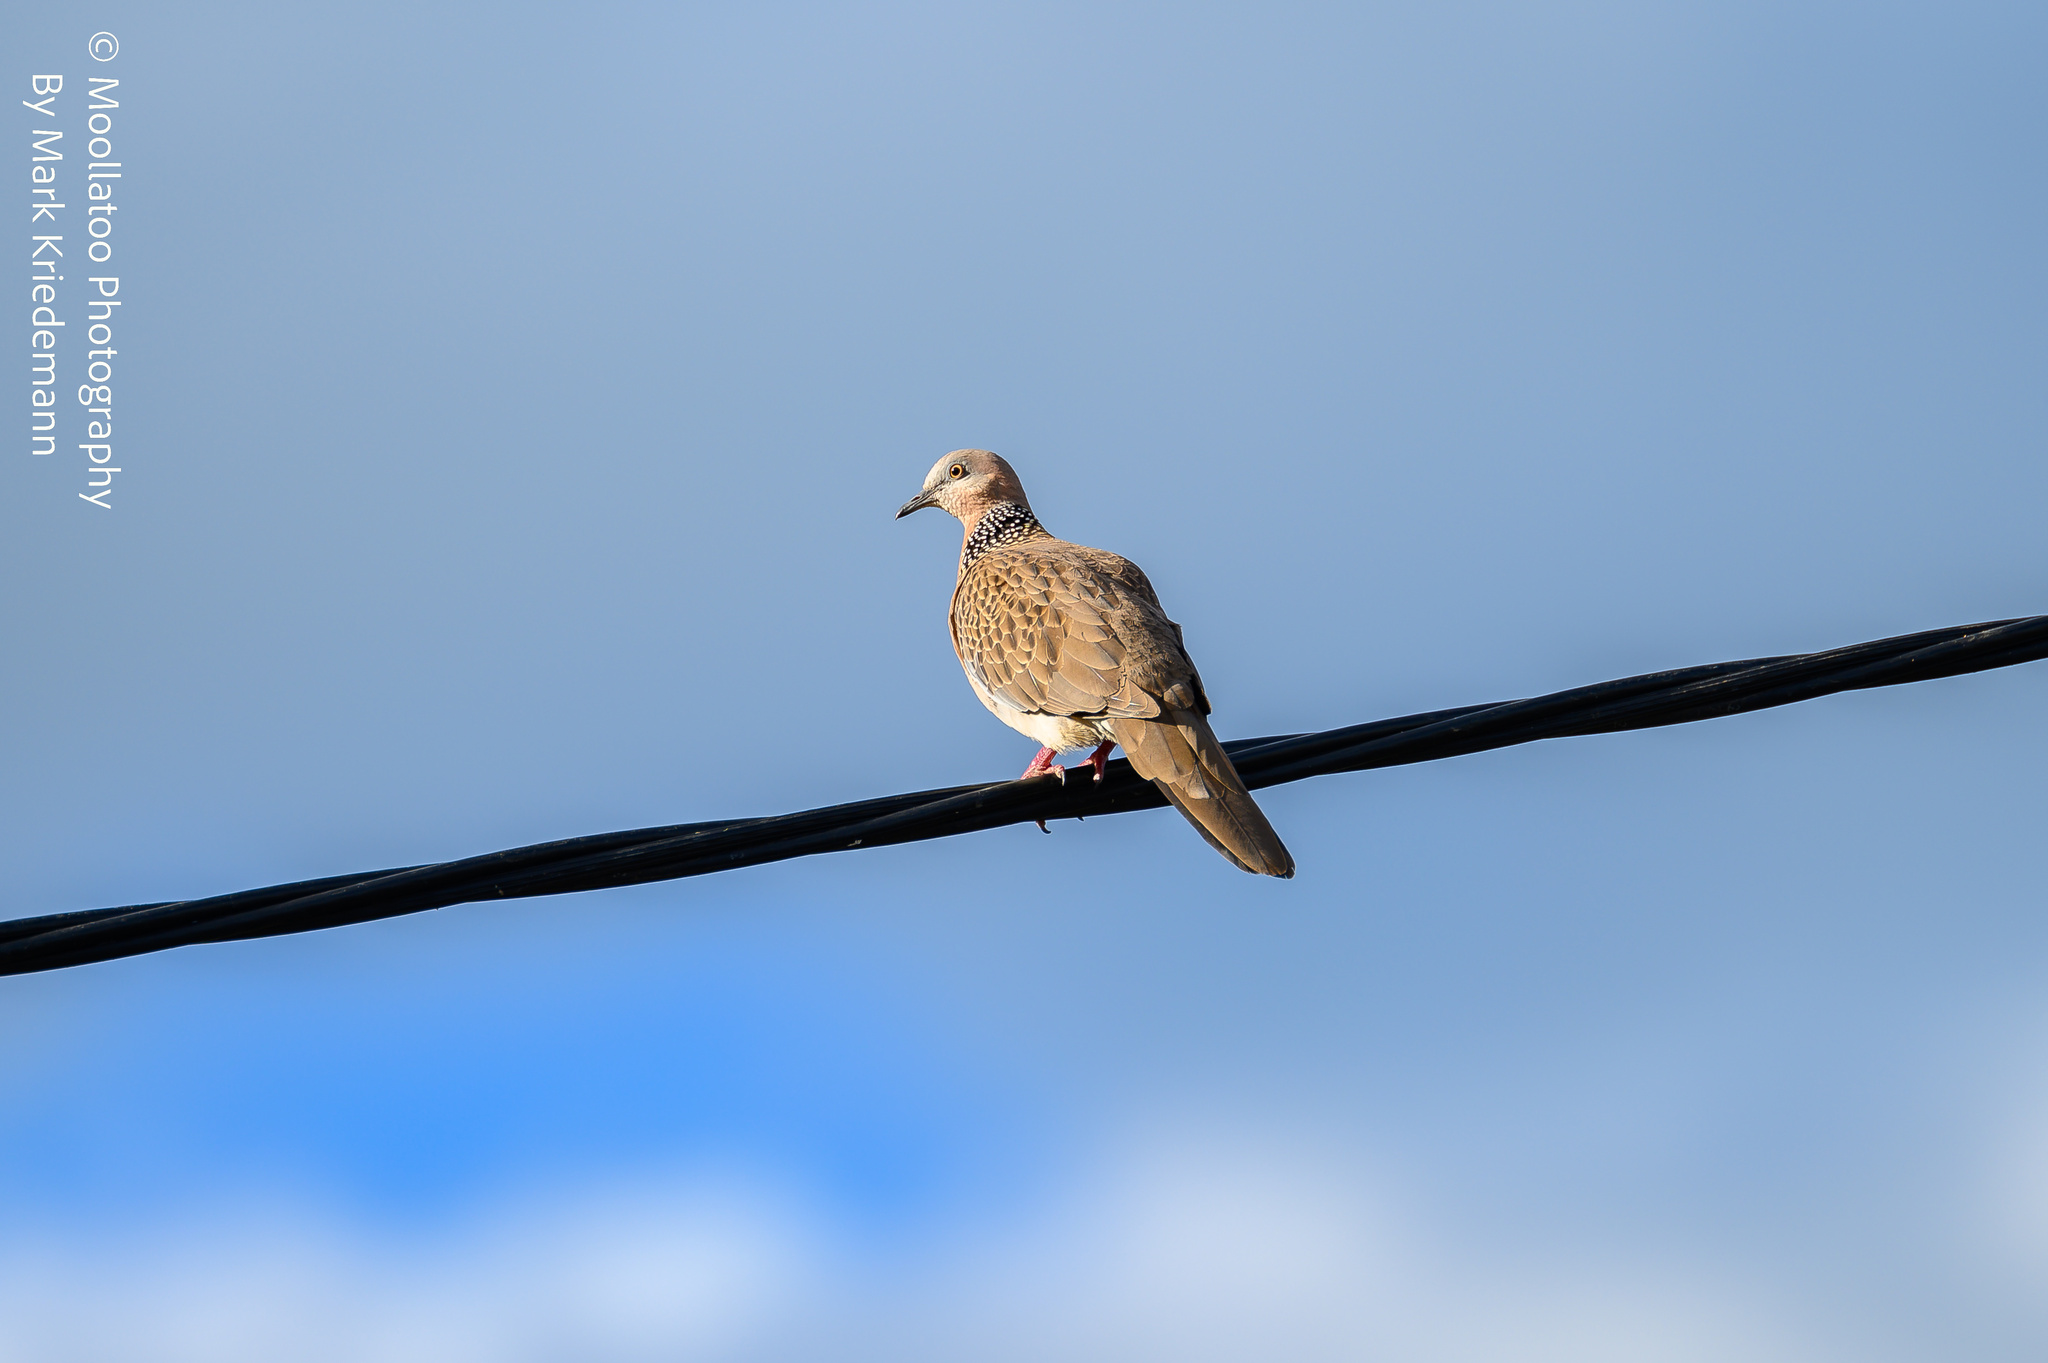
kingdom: Animalia
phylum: Chordata
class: Aves
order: Columbiformes
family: Columbidae
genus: Spilopelia
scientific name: Spilopelia chinensis
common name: Spotted dove
